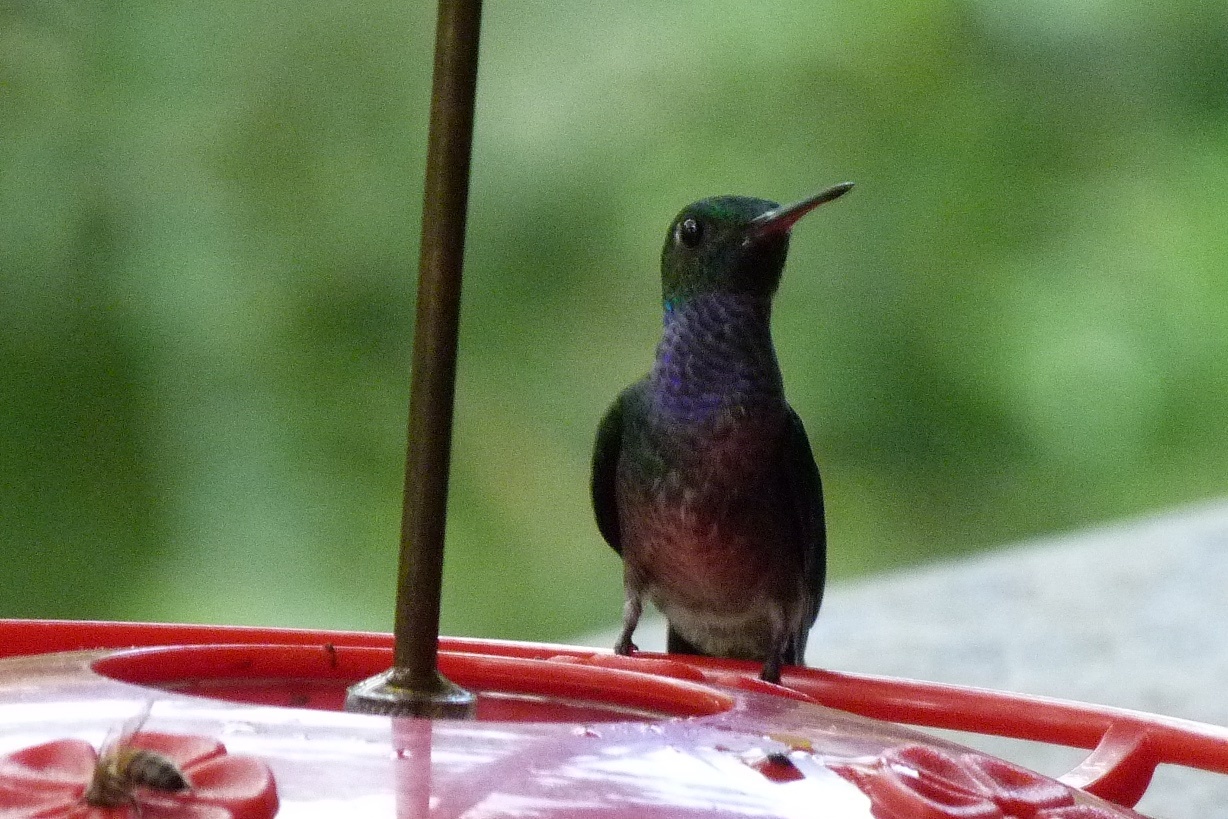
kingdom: Animalia
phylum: Chordata
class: Aves
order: Apodiformes
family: Trochilidae
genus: Polyerata
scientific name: Polyerata amabilis
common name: Blue-chested hummingbird
